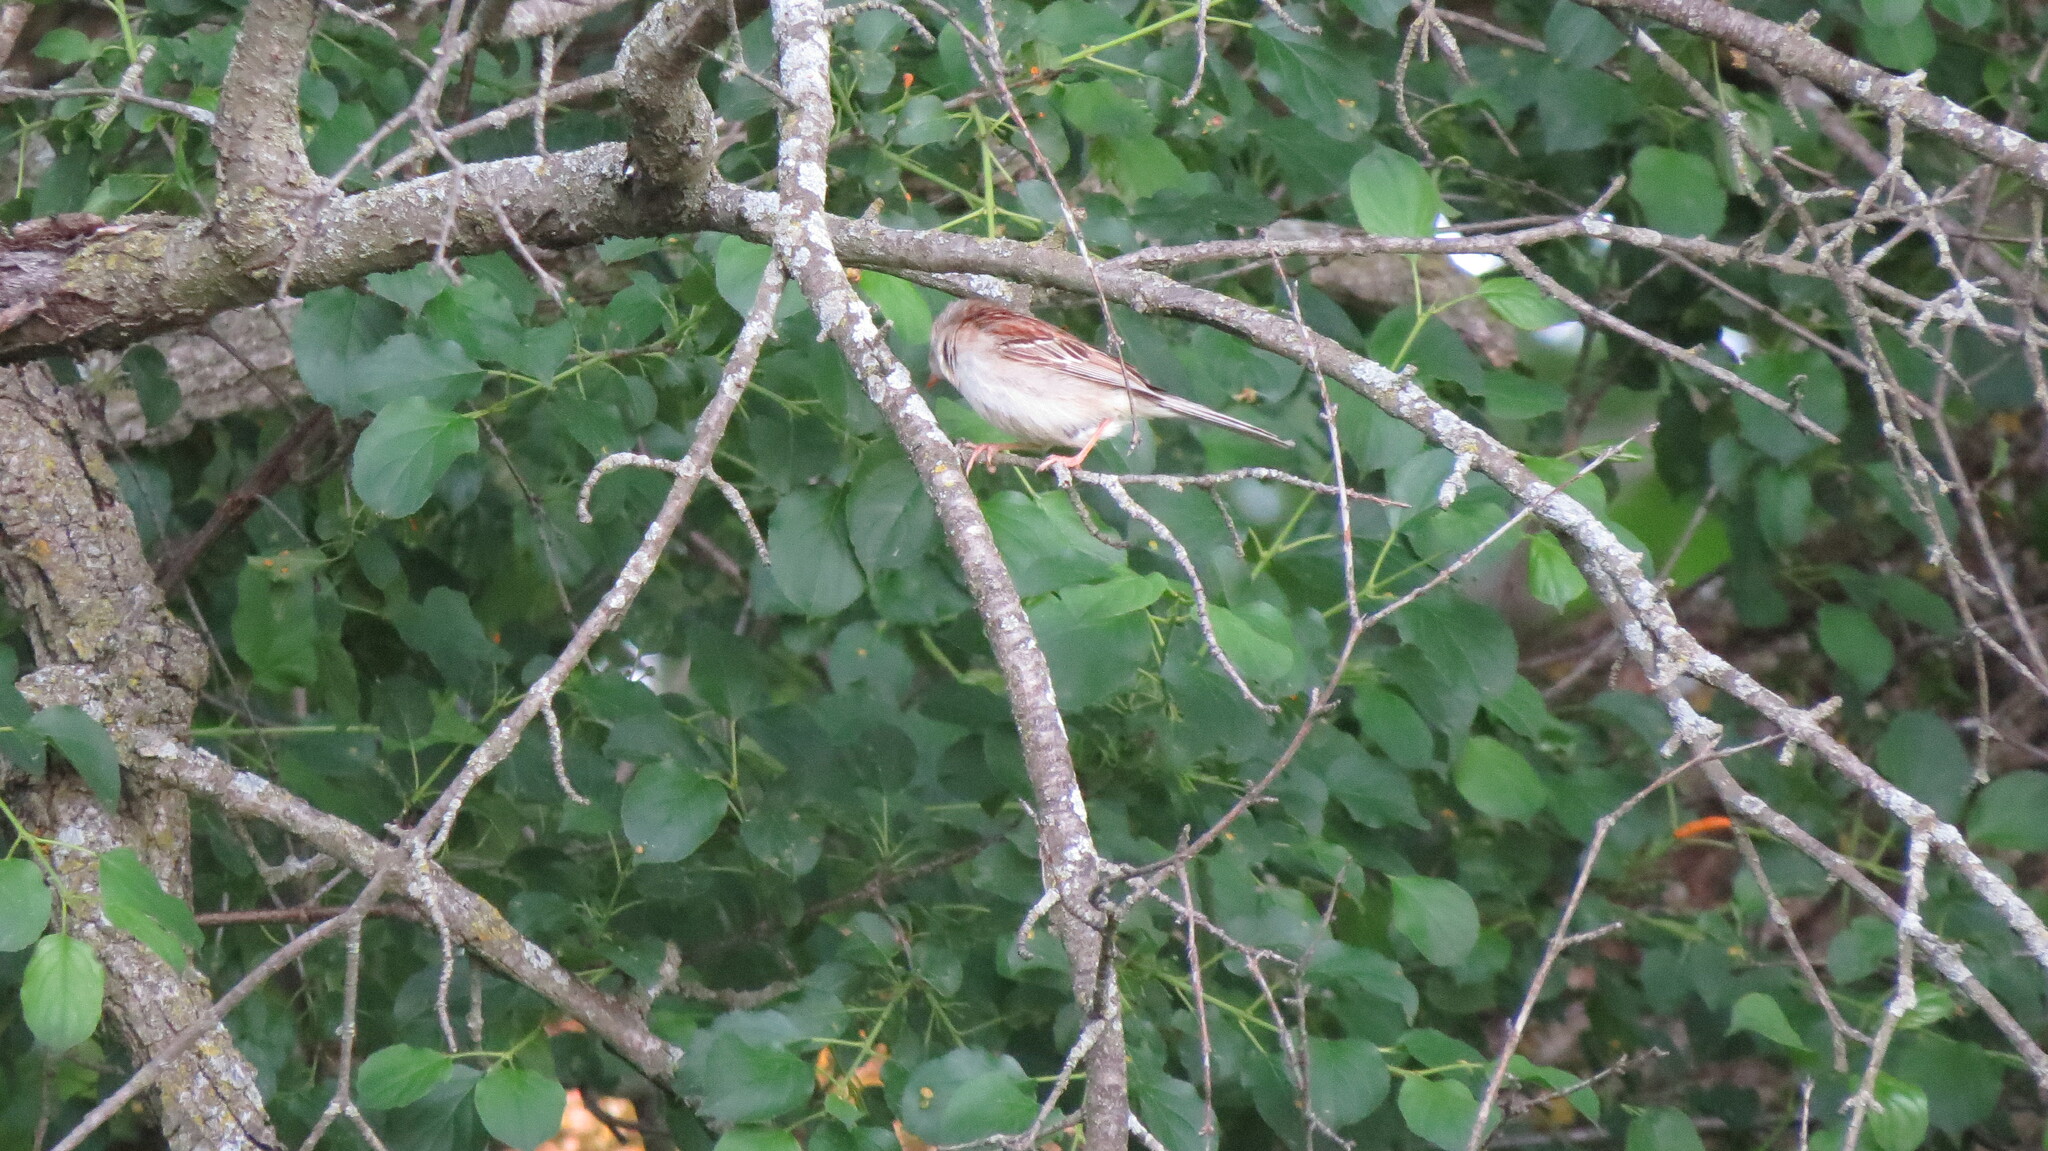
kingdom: Animalia
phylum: Chordata
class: Aves
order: Passeriformes
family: Passerellidae
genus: Spizella
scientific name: Spizella pusilla
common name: Field sparrow
